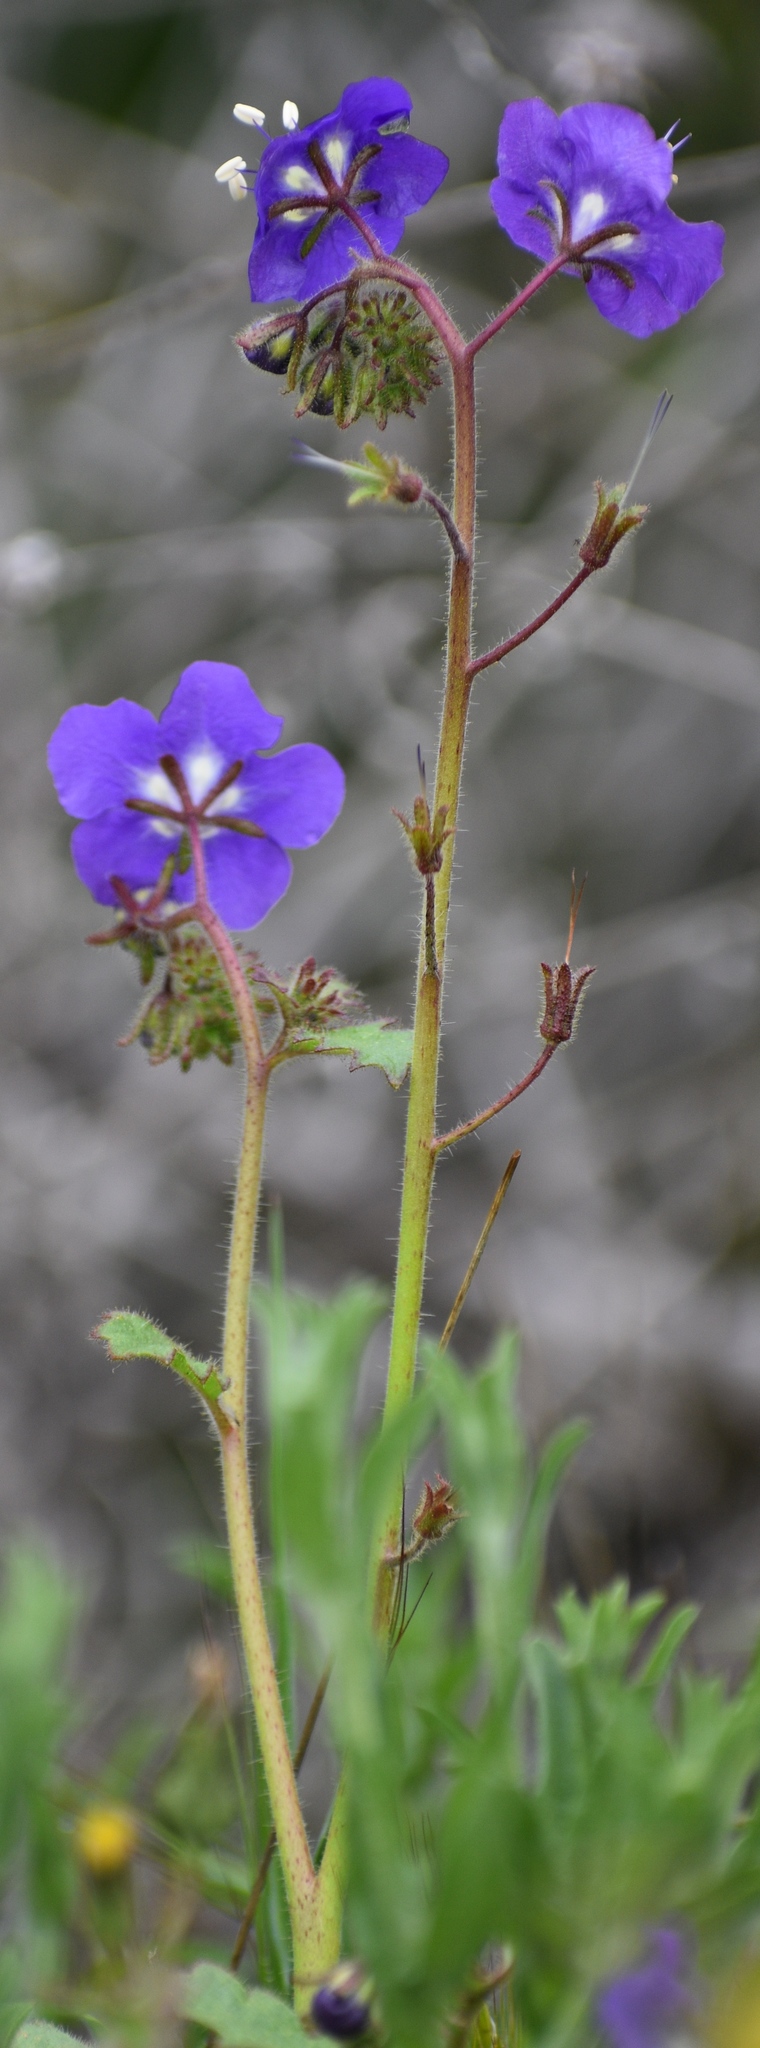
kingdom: Plantae
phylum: Tracheophyta
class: Magnoliopsida
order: Boraginales
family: Hydrophyllaceae
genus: Phacelia
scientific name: Phacelia parryi
